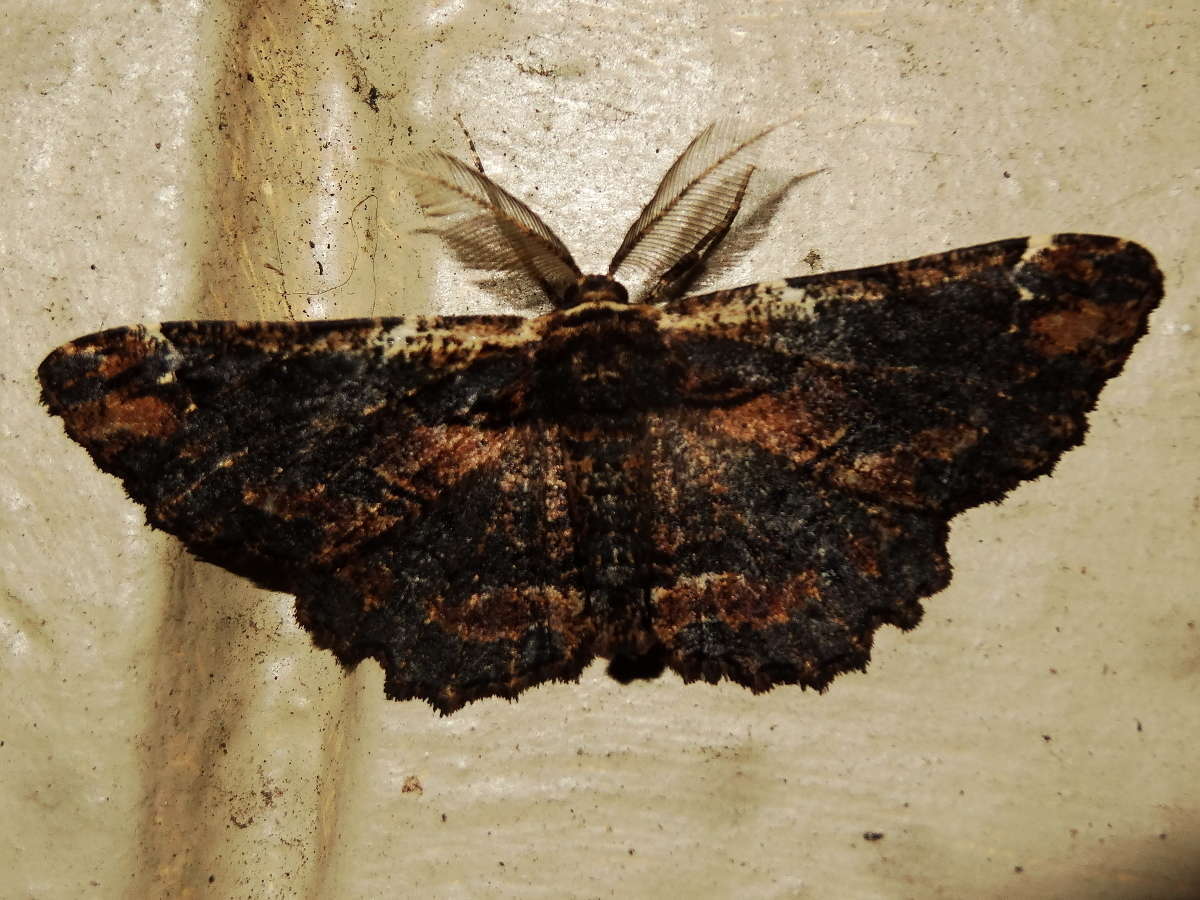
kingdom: Animalia
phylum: Arthropoda
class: Insecta
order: Lepidoptera
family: Geometridae
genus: Pholodes
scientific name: Pholodes sinistraria
